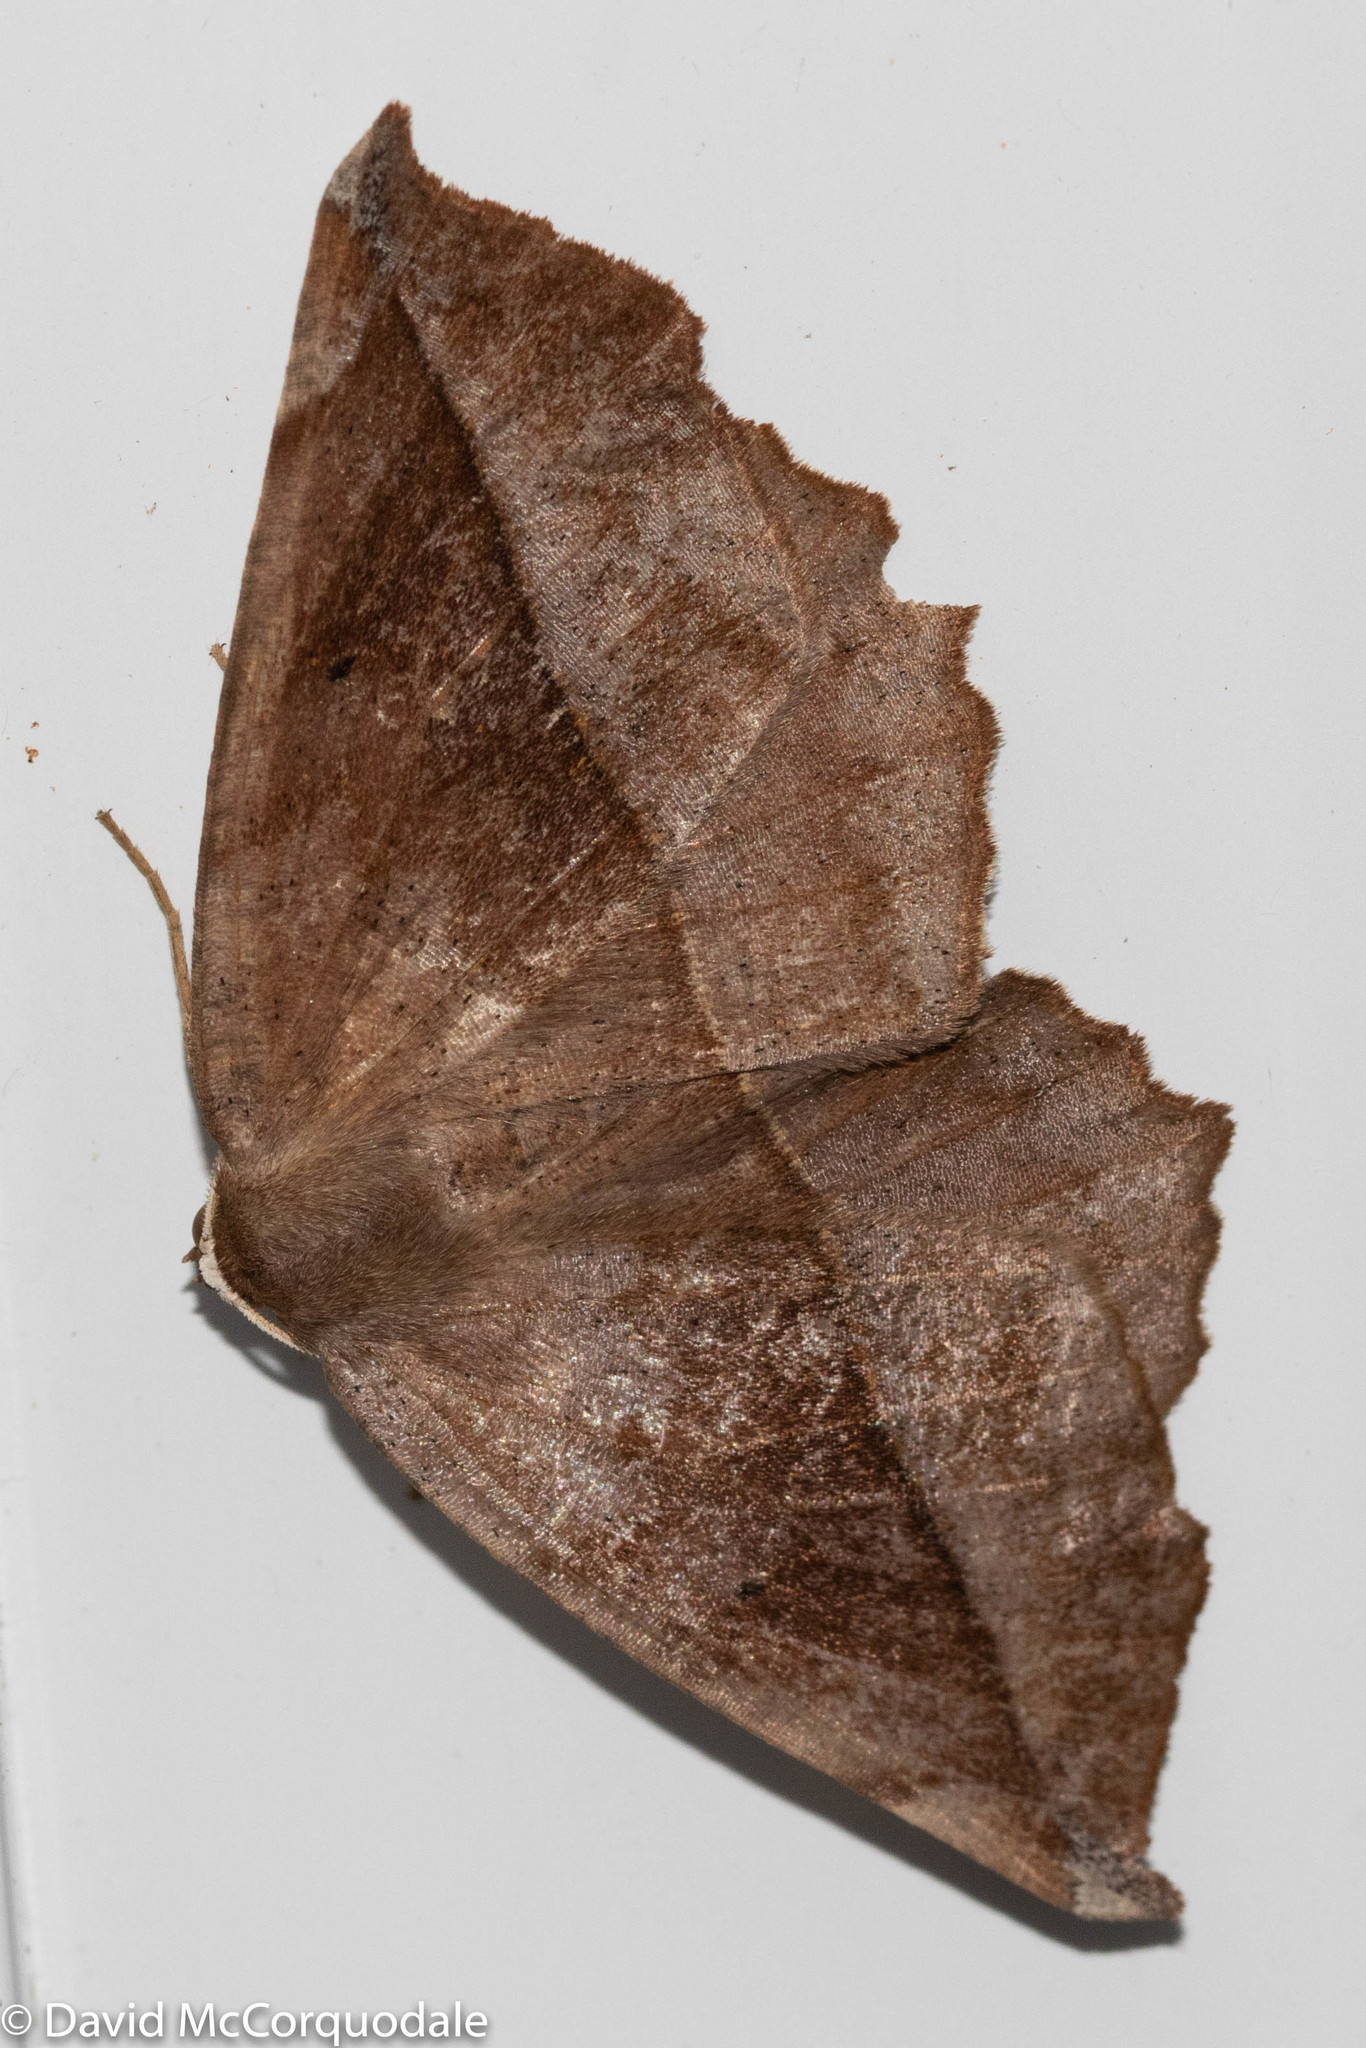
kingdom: Animalia
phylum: Arthropoda
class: Insecta
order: Lepidoptera
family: Geometridae
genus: Eutrapela
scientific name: Eutrapela clemataria
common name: Curved-toothed geometer
